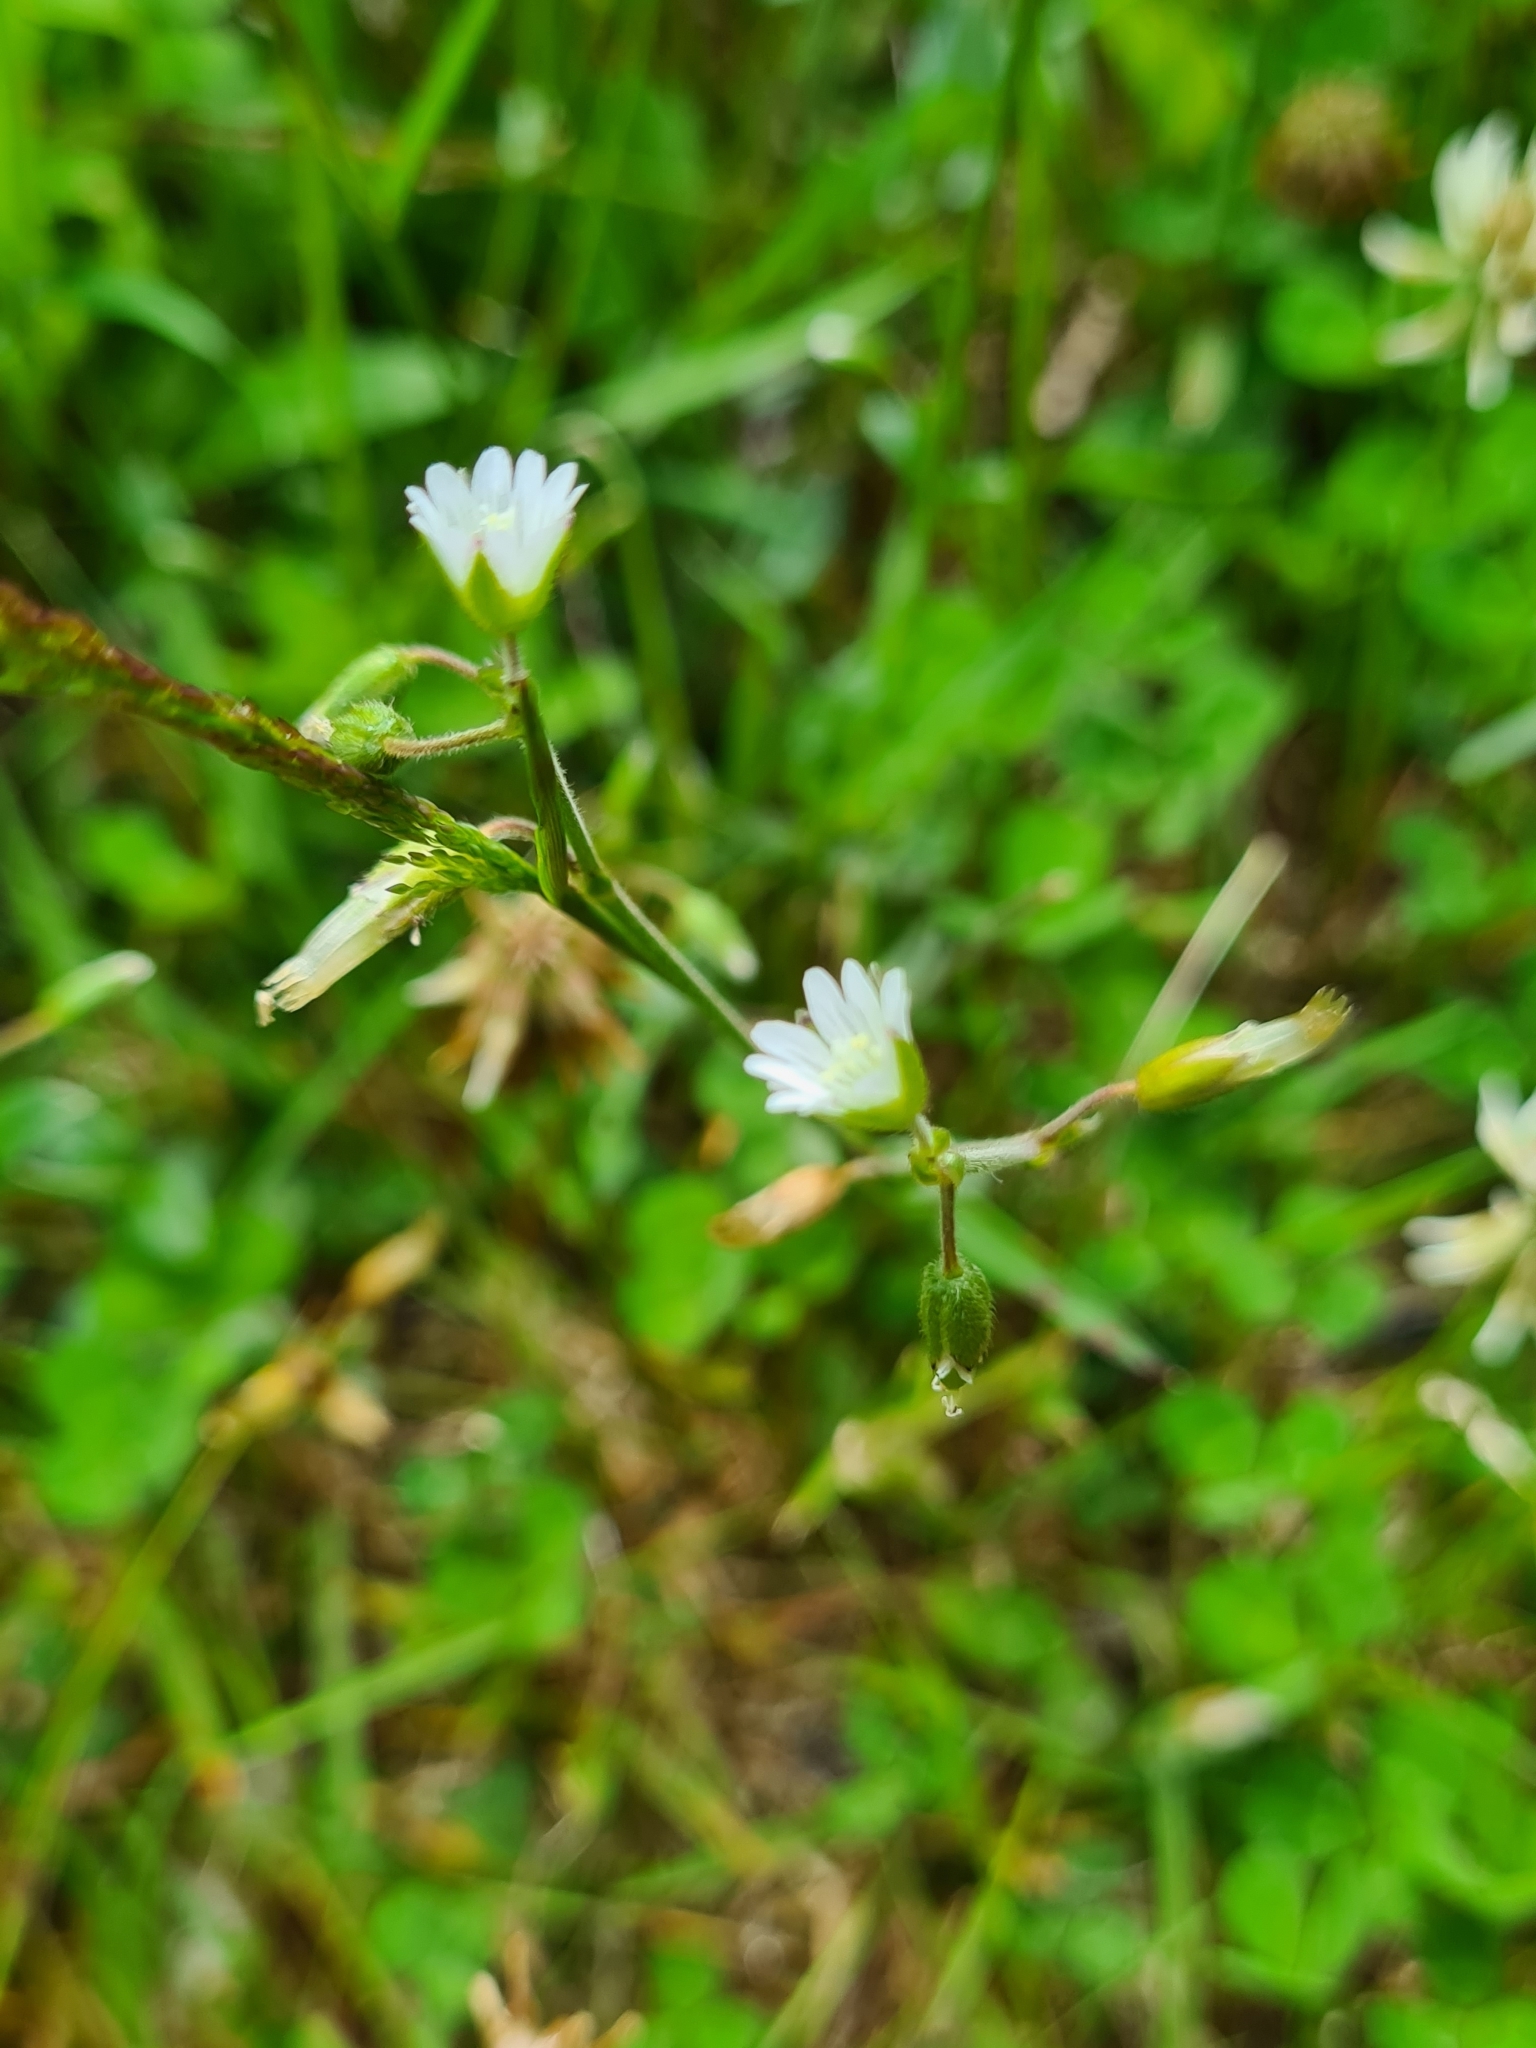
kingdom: Plantae
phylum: Tracheophyta
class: Magnoliopsida
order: Caryophyllales
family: Caryophyllaceae
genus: Cerastium
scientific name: Cerastium fontanum
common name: Common mouse-ear
